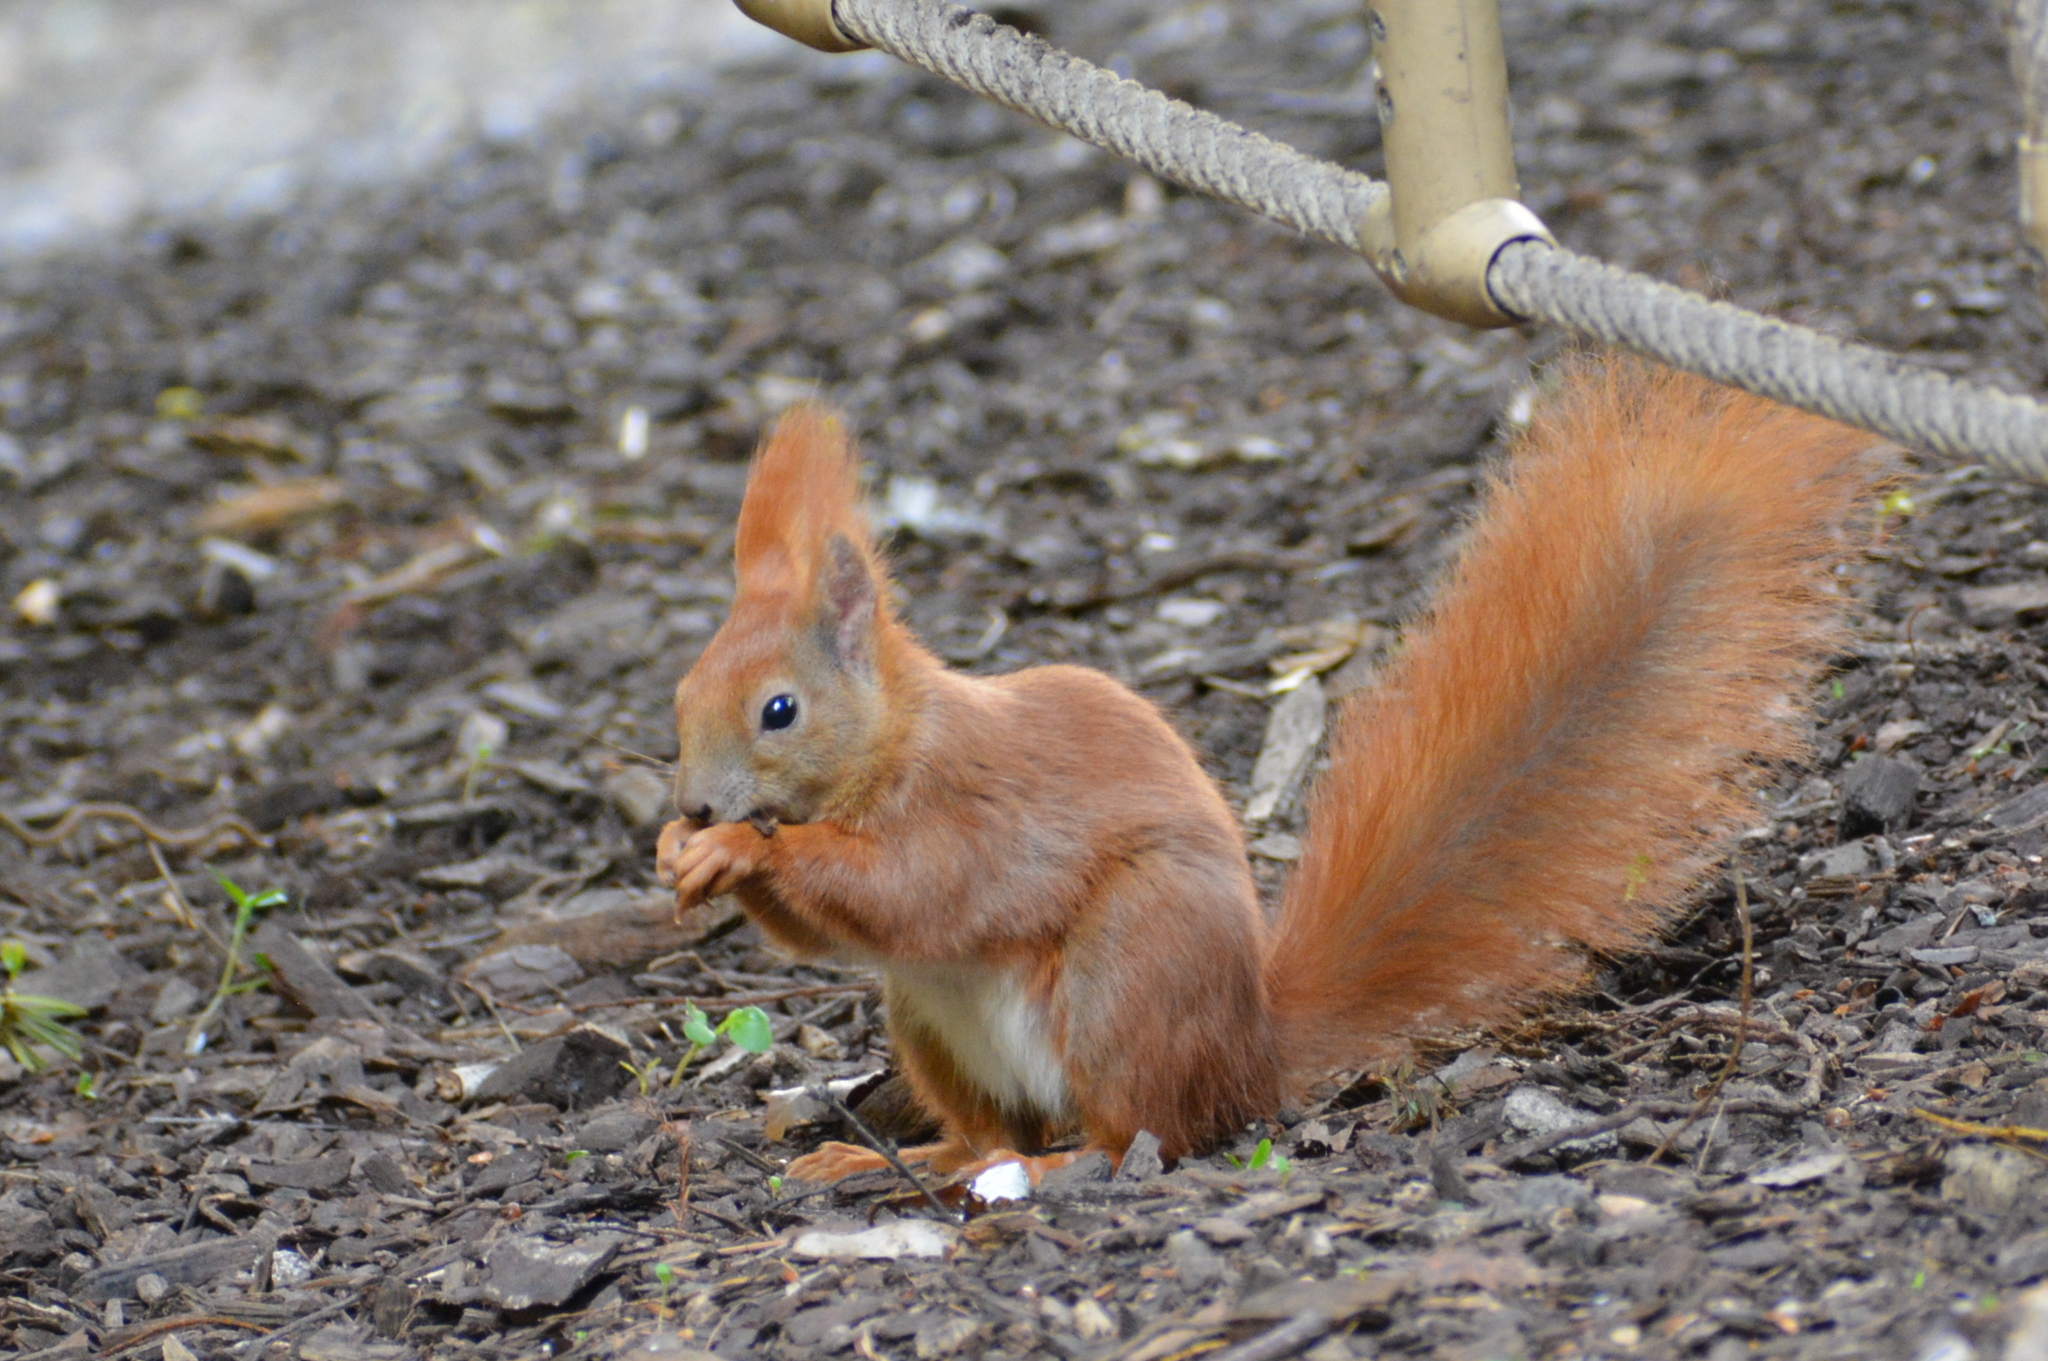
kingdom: Animalia
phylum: Chordata
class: Mammalia
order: Rodentia
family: Sciuridae
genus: Sciurus
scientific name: Sciurus vulgaris
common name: Eurasian red squirrel
